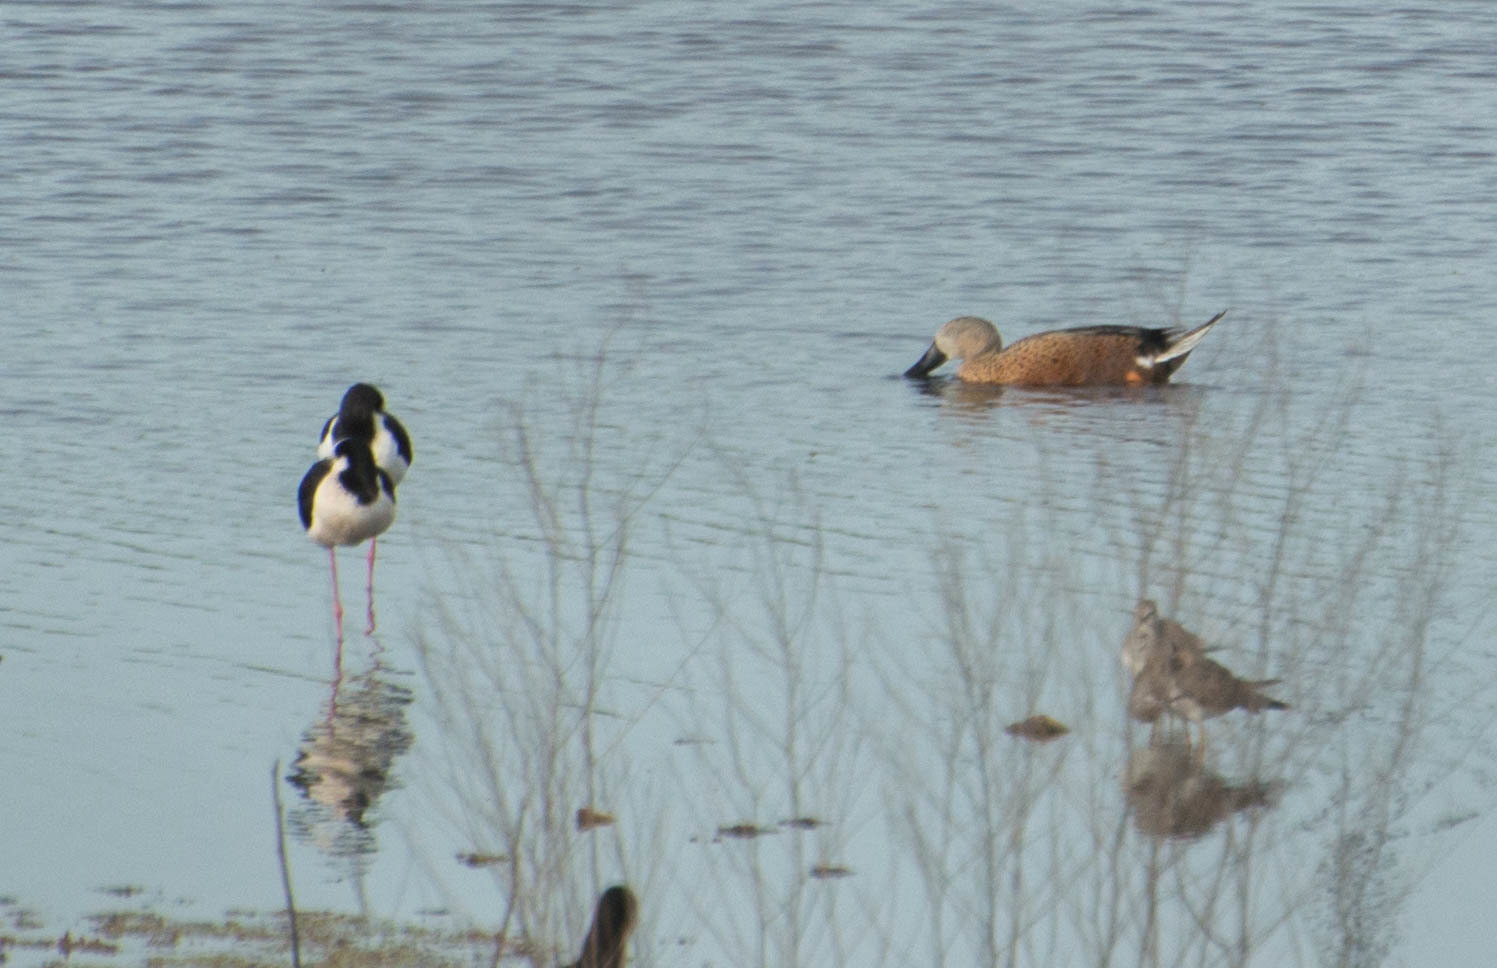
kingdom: Animalia
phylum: Chordata
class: Aves
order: Anseriformes
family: Anatidae
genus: Spatula
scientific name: Spatula platalea
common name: Red shoveler
